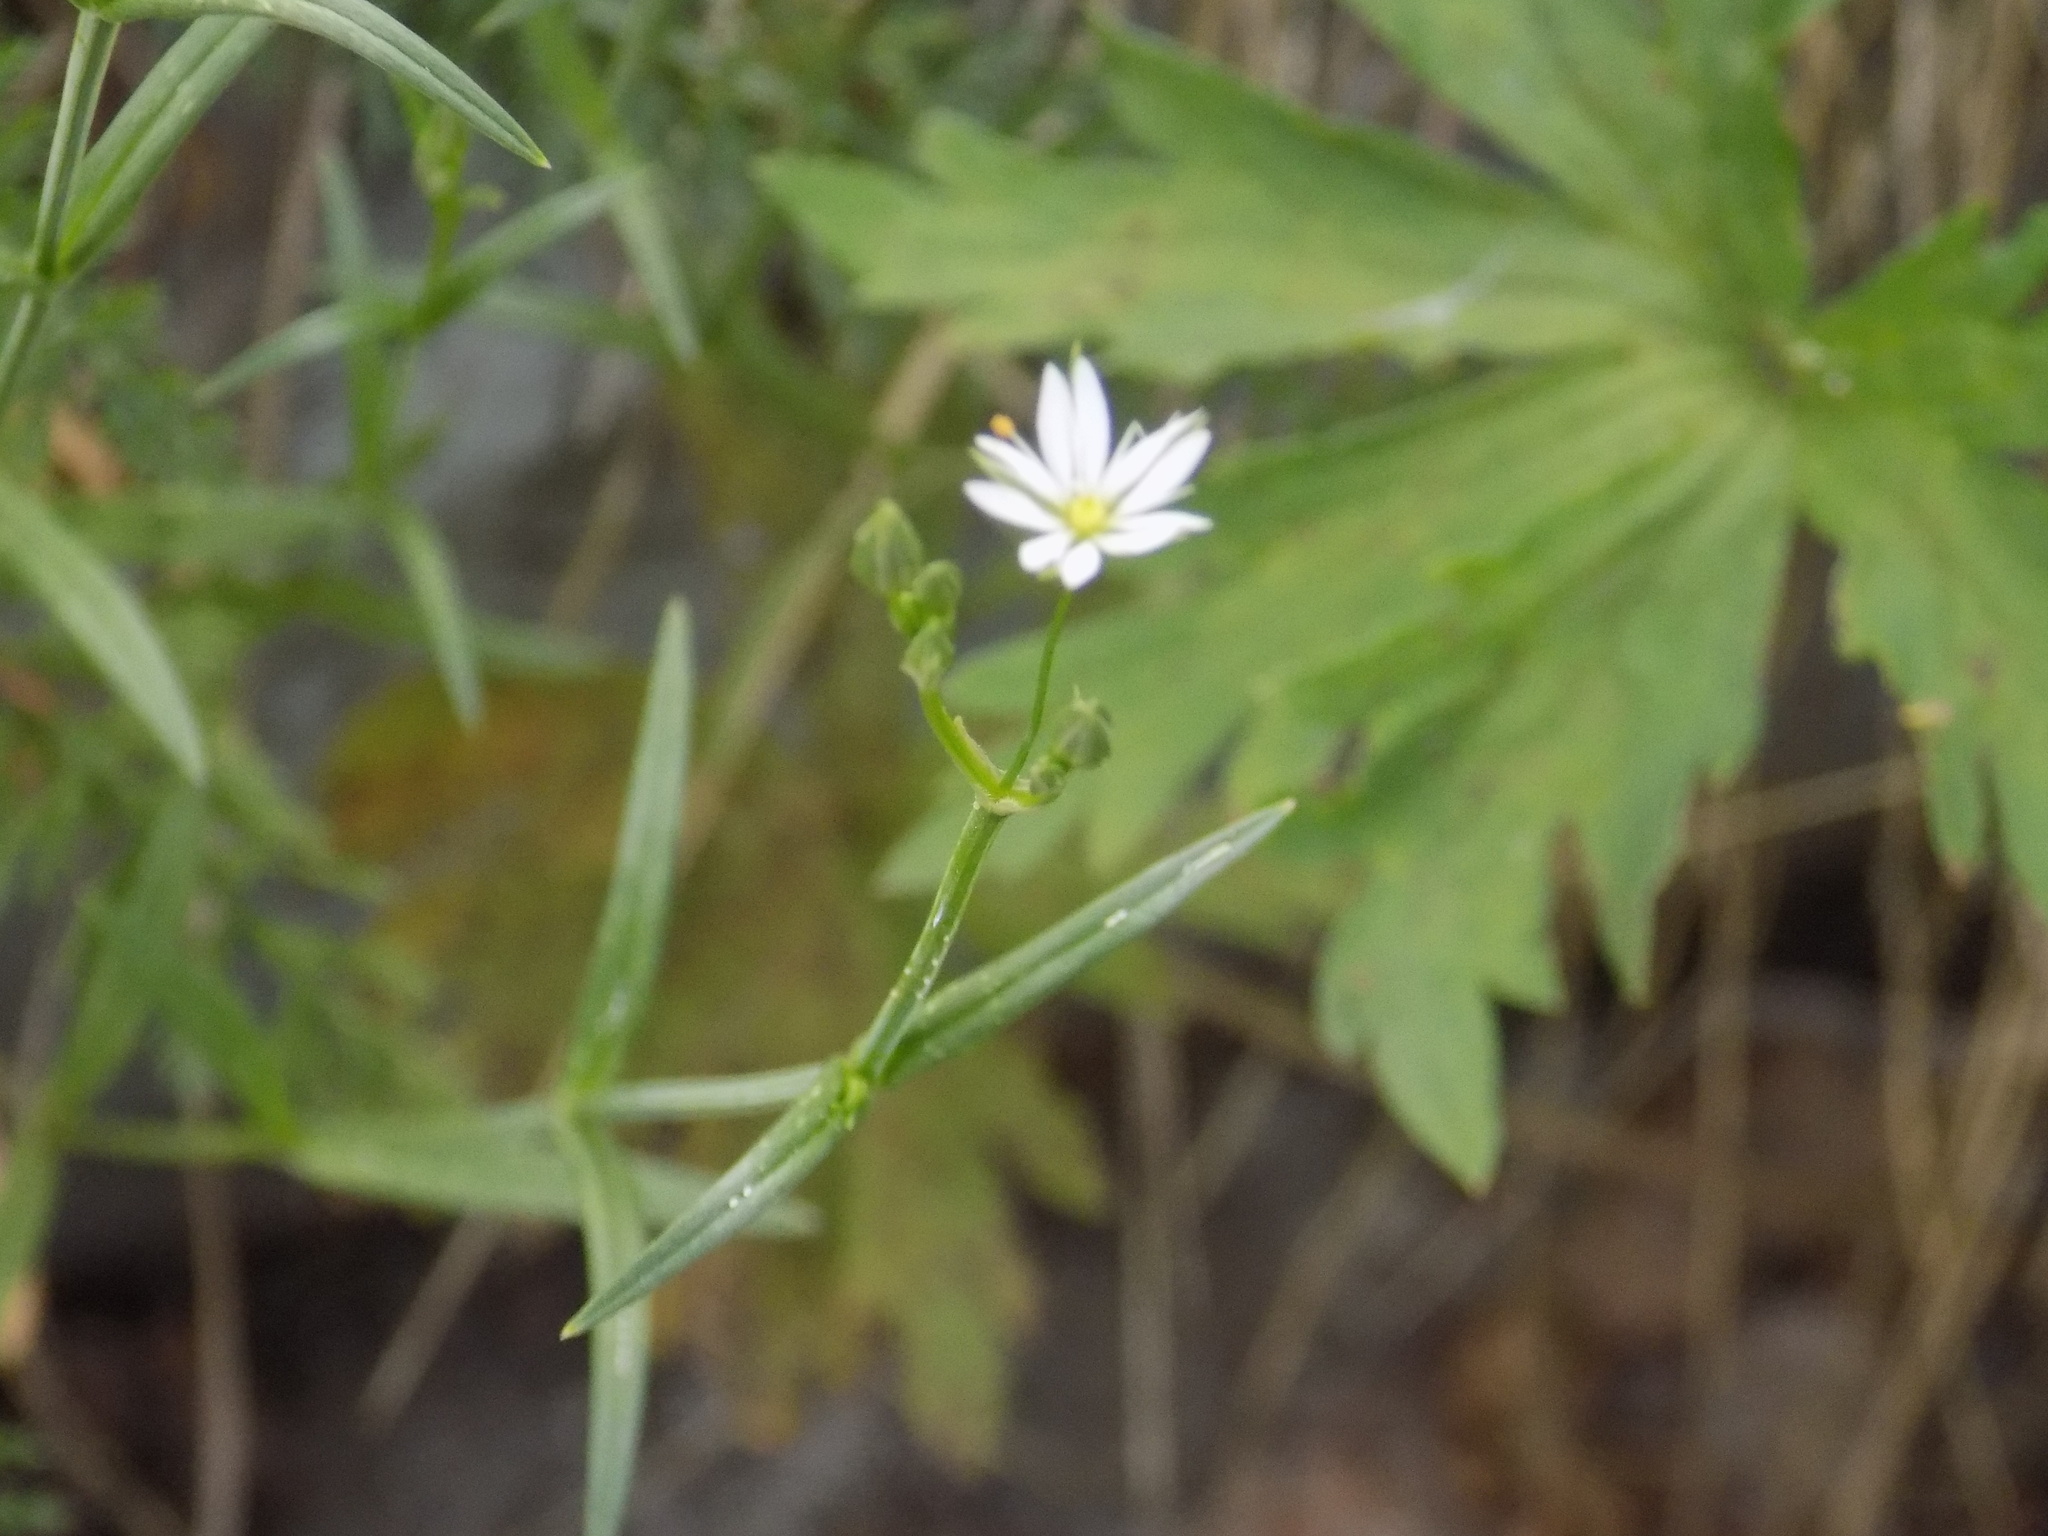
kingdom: Plantae
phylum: Tracheophyta
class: Magnoliopsida
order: Caryophyllales
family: Caryophyllaceae
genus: Stellaria
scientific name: Stellaria graminea
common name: Grass-like starwort
